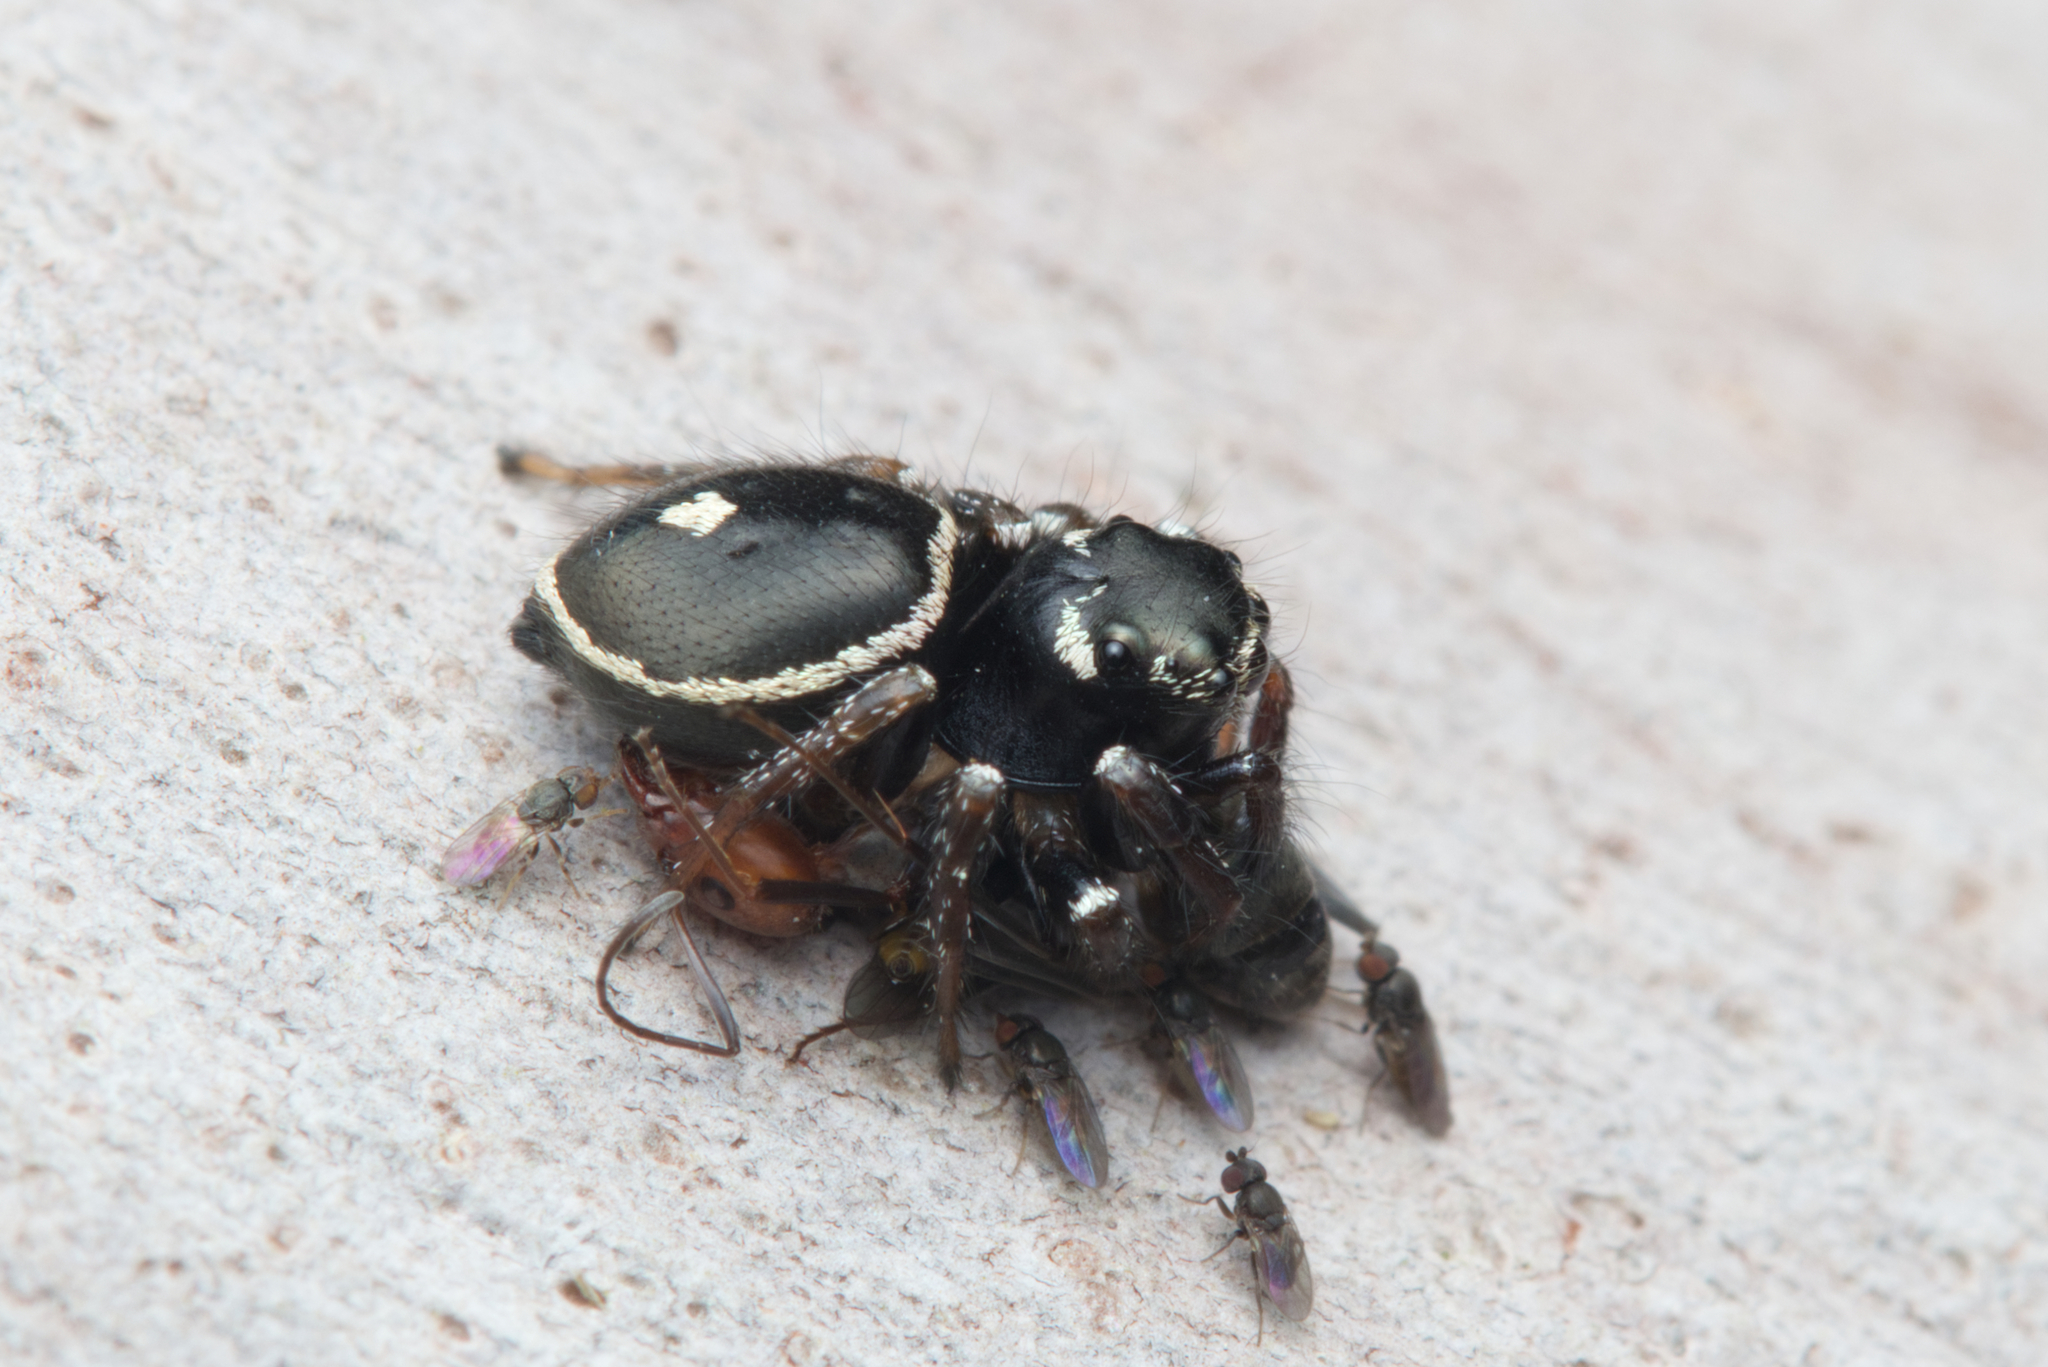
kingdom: Animalia
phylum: Arthropoda
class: Arachnida
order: Araneae
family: Salticidae
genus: Zenodorus
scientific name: Zenodorus orbiculatus
